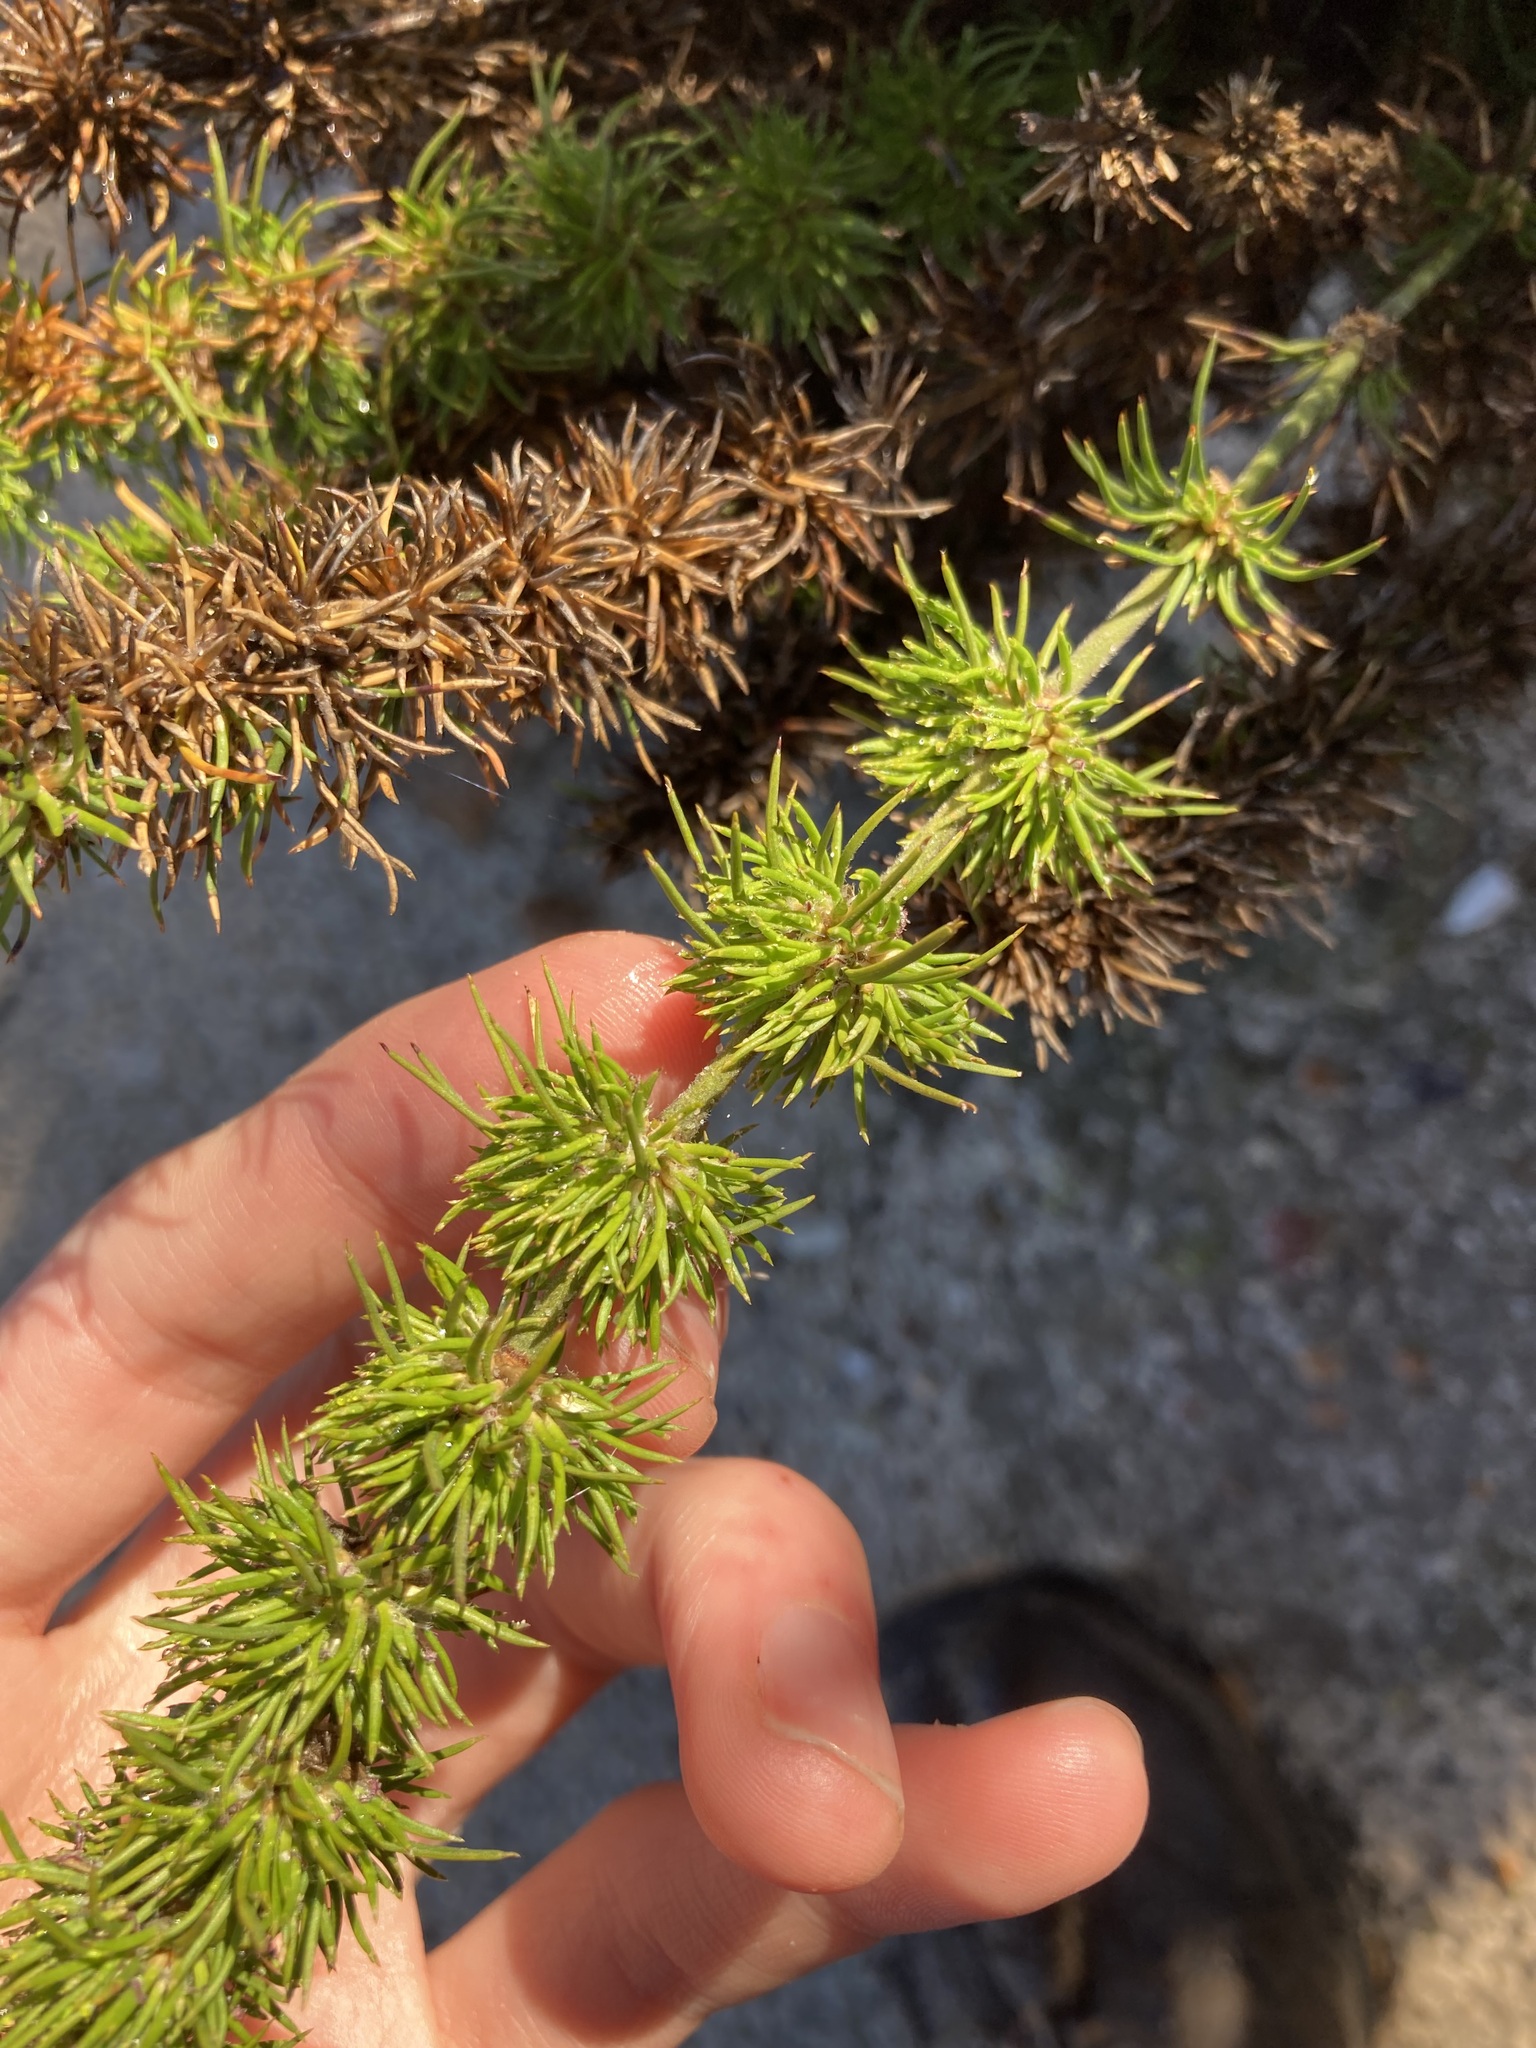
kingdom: Plantae
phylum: Tracheophyta
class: Liliopsida
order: Poales
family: Restionaceae
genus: Desmocladus
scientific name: Desmocladus fasciculatus
